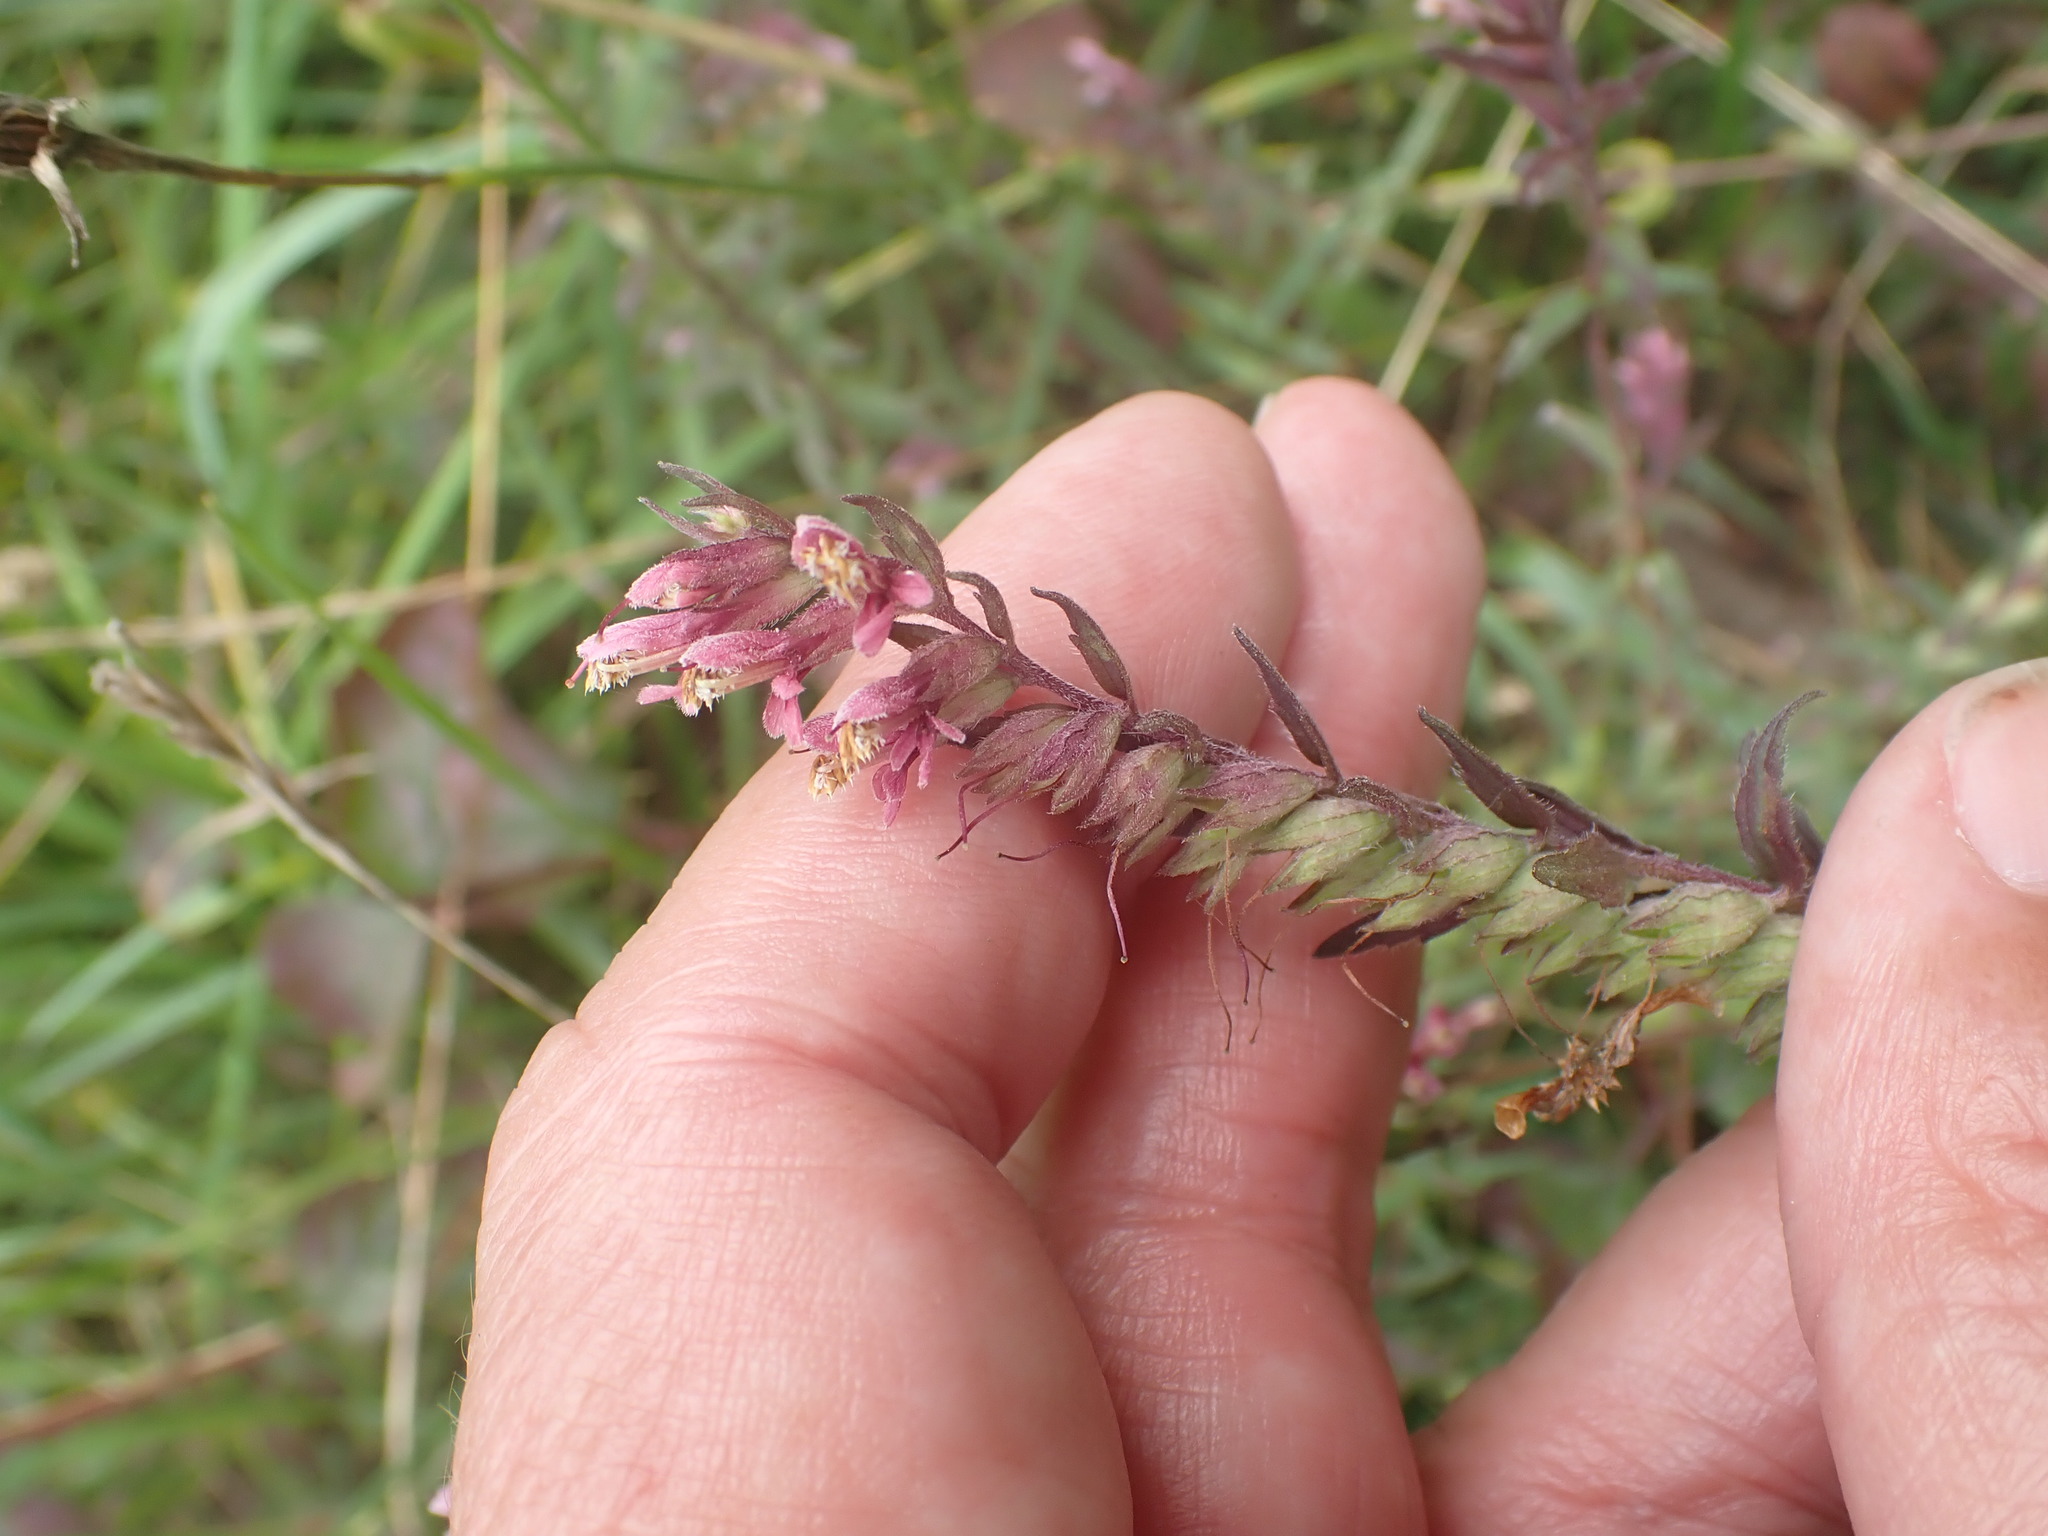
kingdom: Plantae
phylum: Tracheophyta
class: Magnoliopsida
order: Lamiales
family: Orobanchaceae
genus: Odontites
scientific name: Odontites vulgaris
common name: Broomrape
